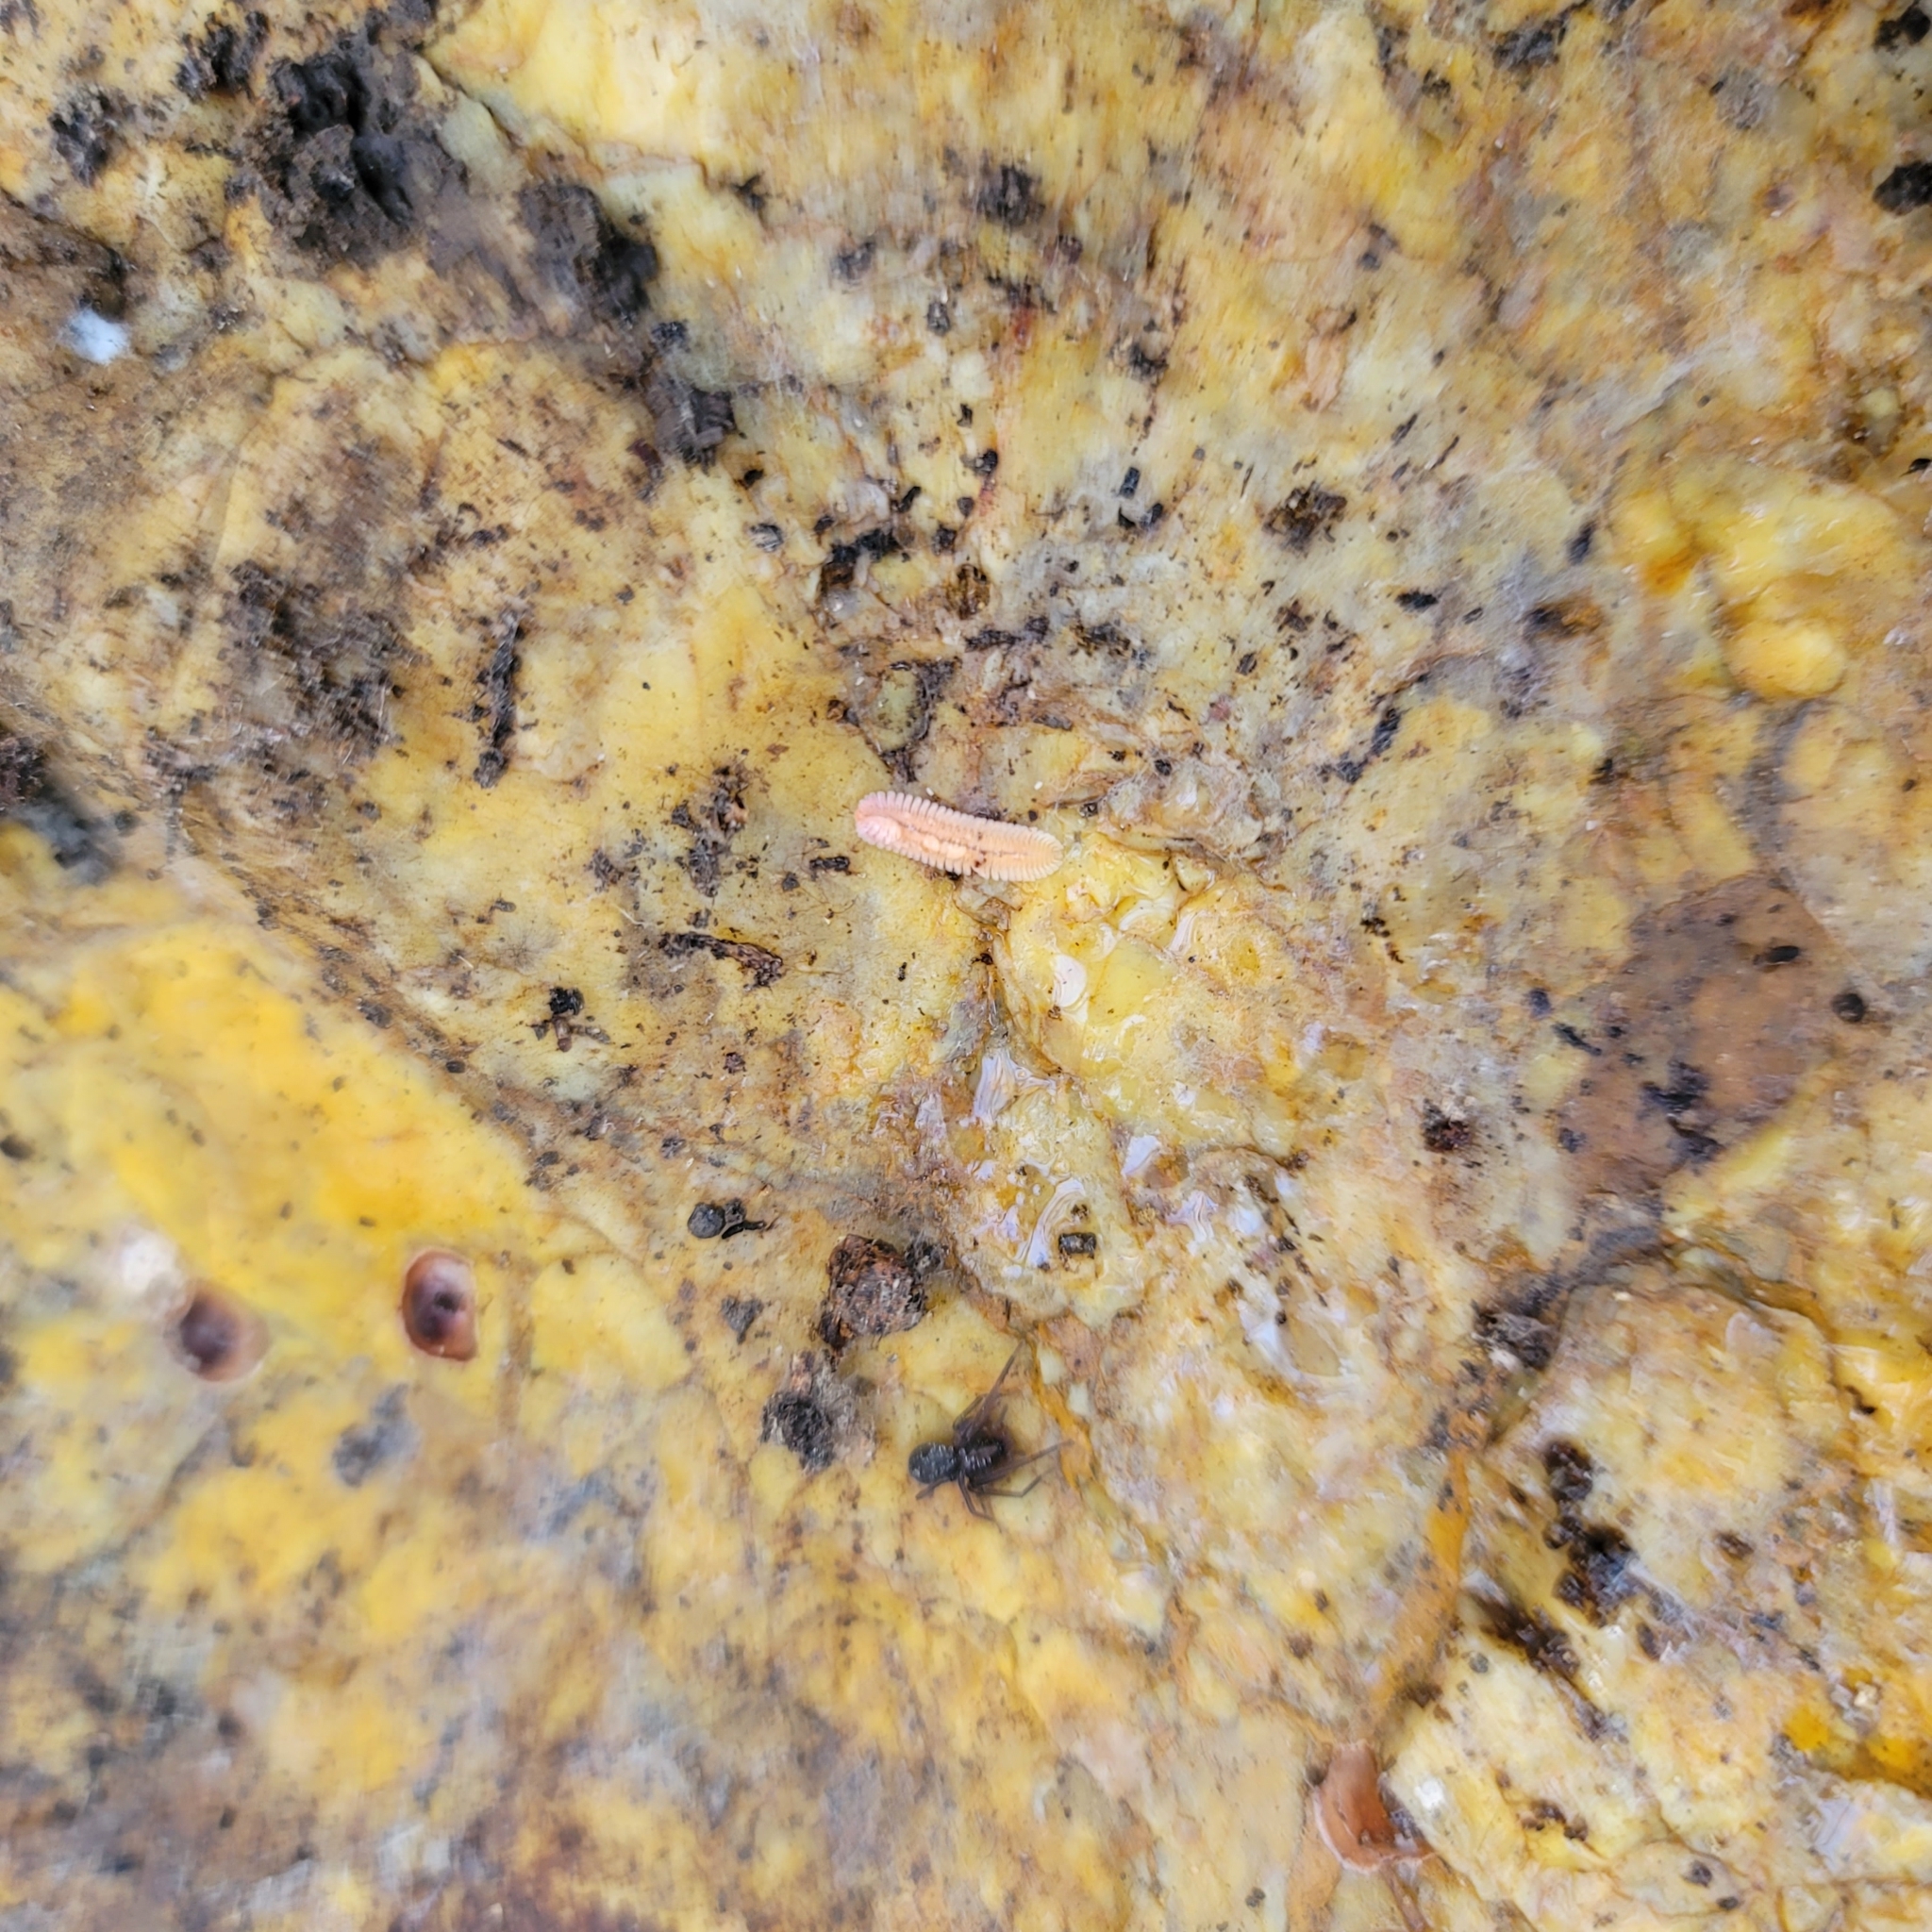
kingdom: Animalia
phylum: Arthropoda
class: Diplopoda
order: Platydesmida
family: Andrognathidae
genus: Brachycybe
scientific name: Brachycybe lecontii
